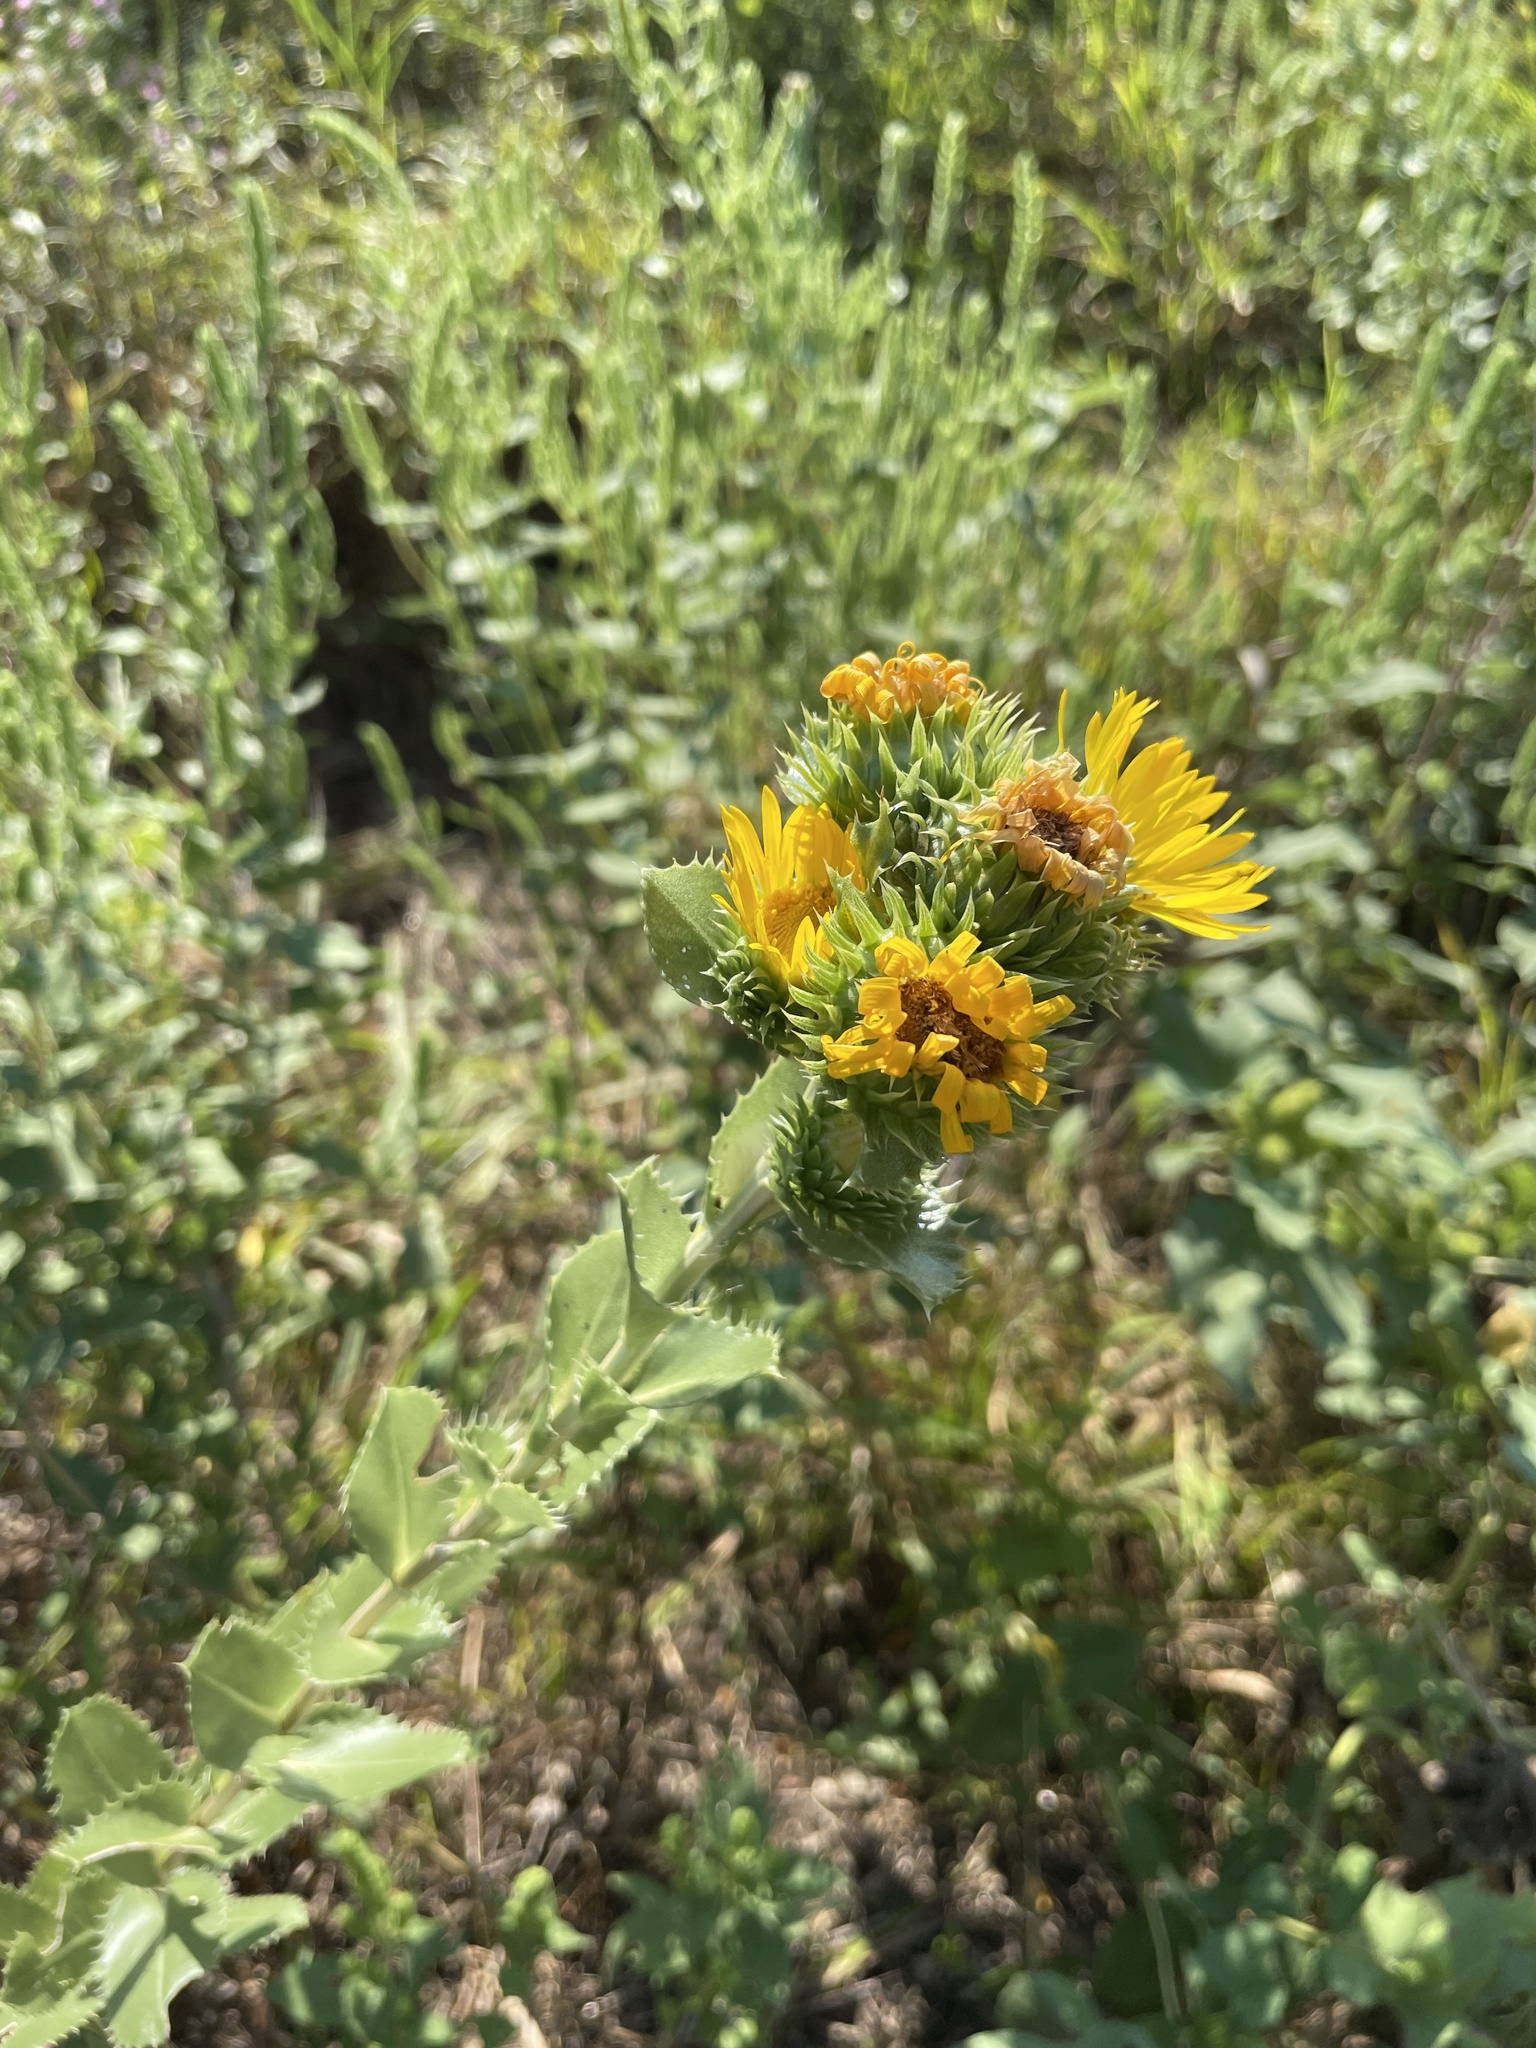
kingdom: Plantae
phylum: Tracheophyta
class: Magnoliopsida
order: Asterales
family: Asteraceae
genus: Grindelia
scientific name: Grindelia ciliata
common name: Goldenweed
